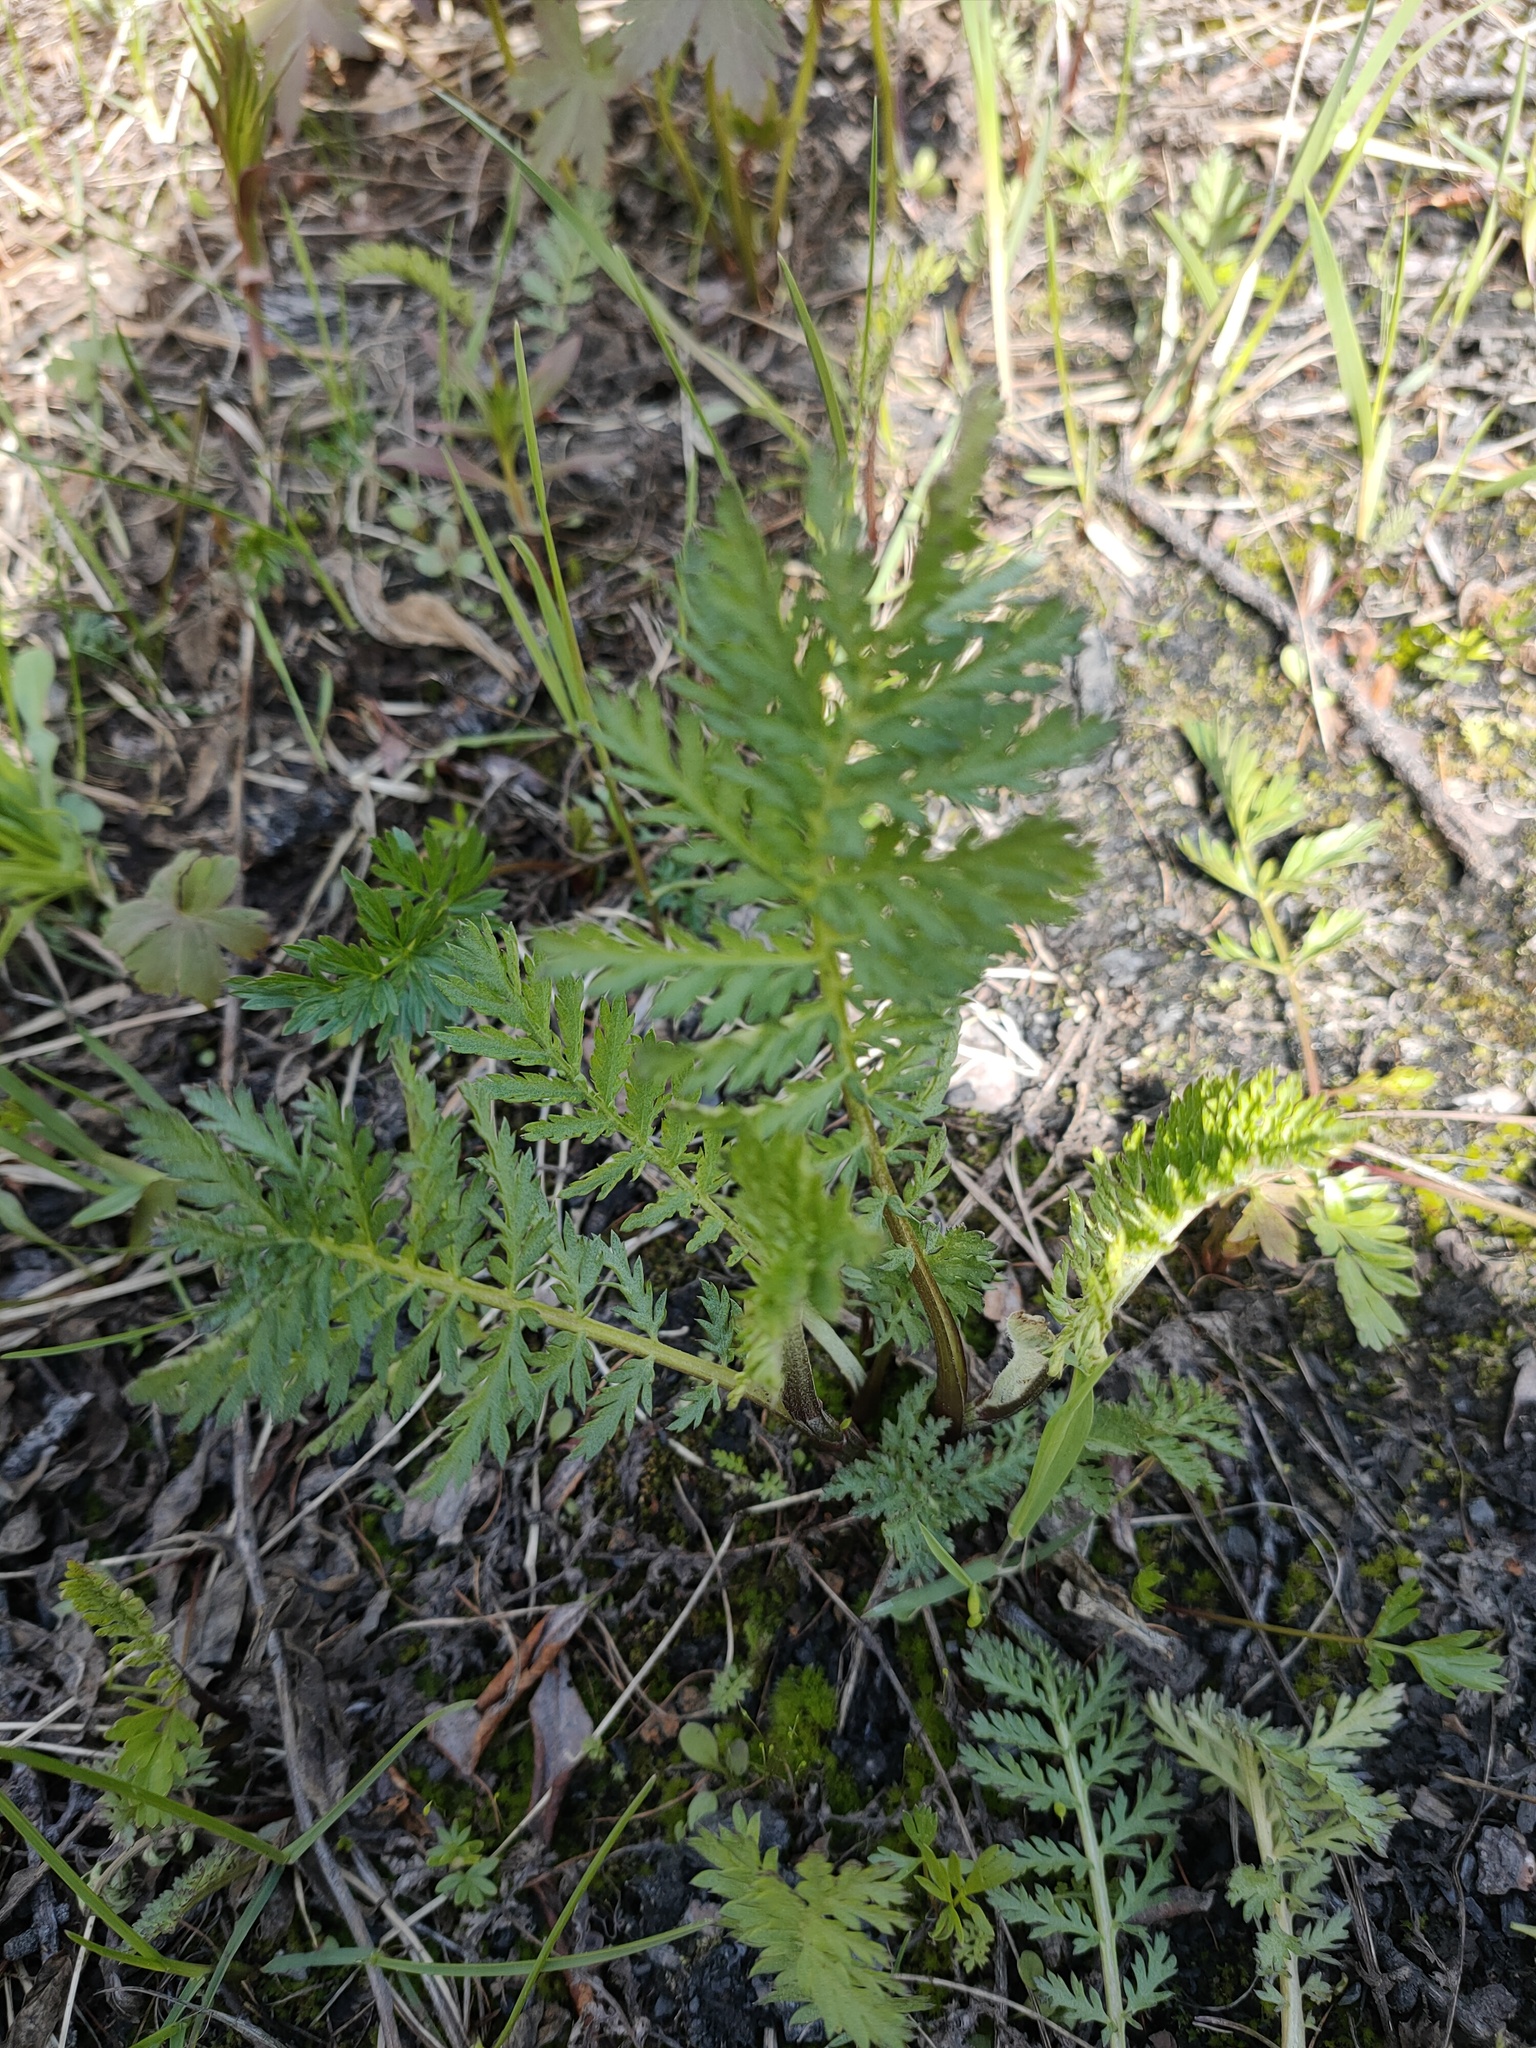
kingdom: Plantae
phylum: Tracheophyta
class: Magnoliopsida
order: Asterales
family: Asteraceae
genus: Tanacetum
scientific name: Tanacetum vulgare
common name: Common tansy
